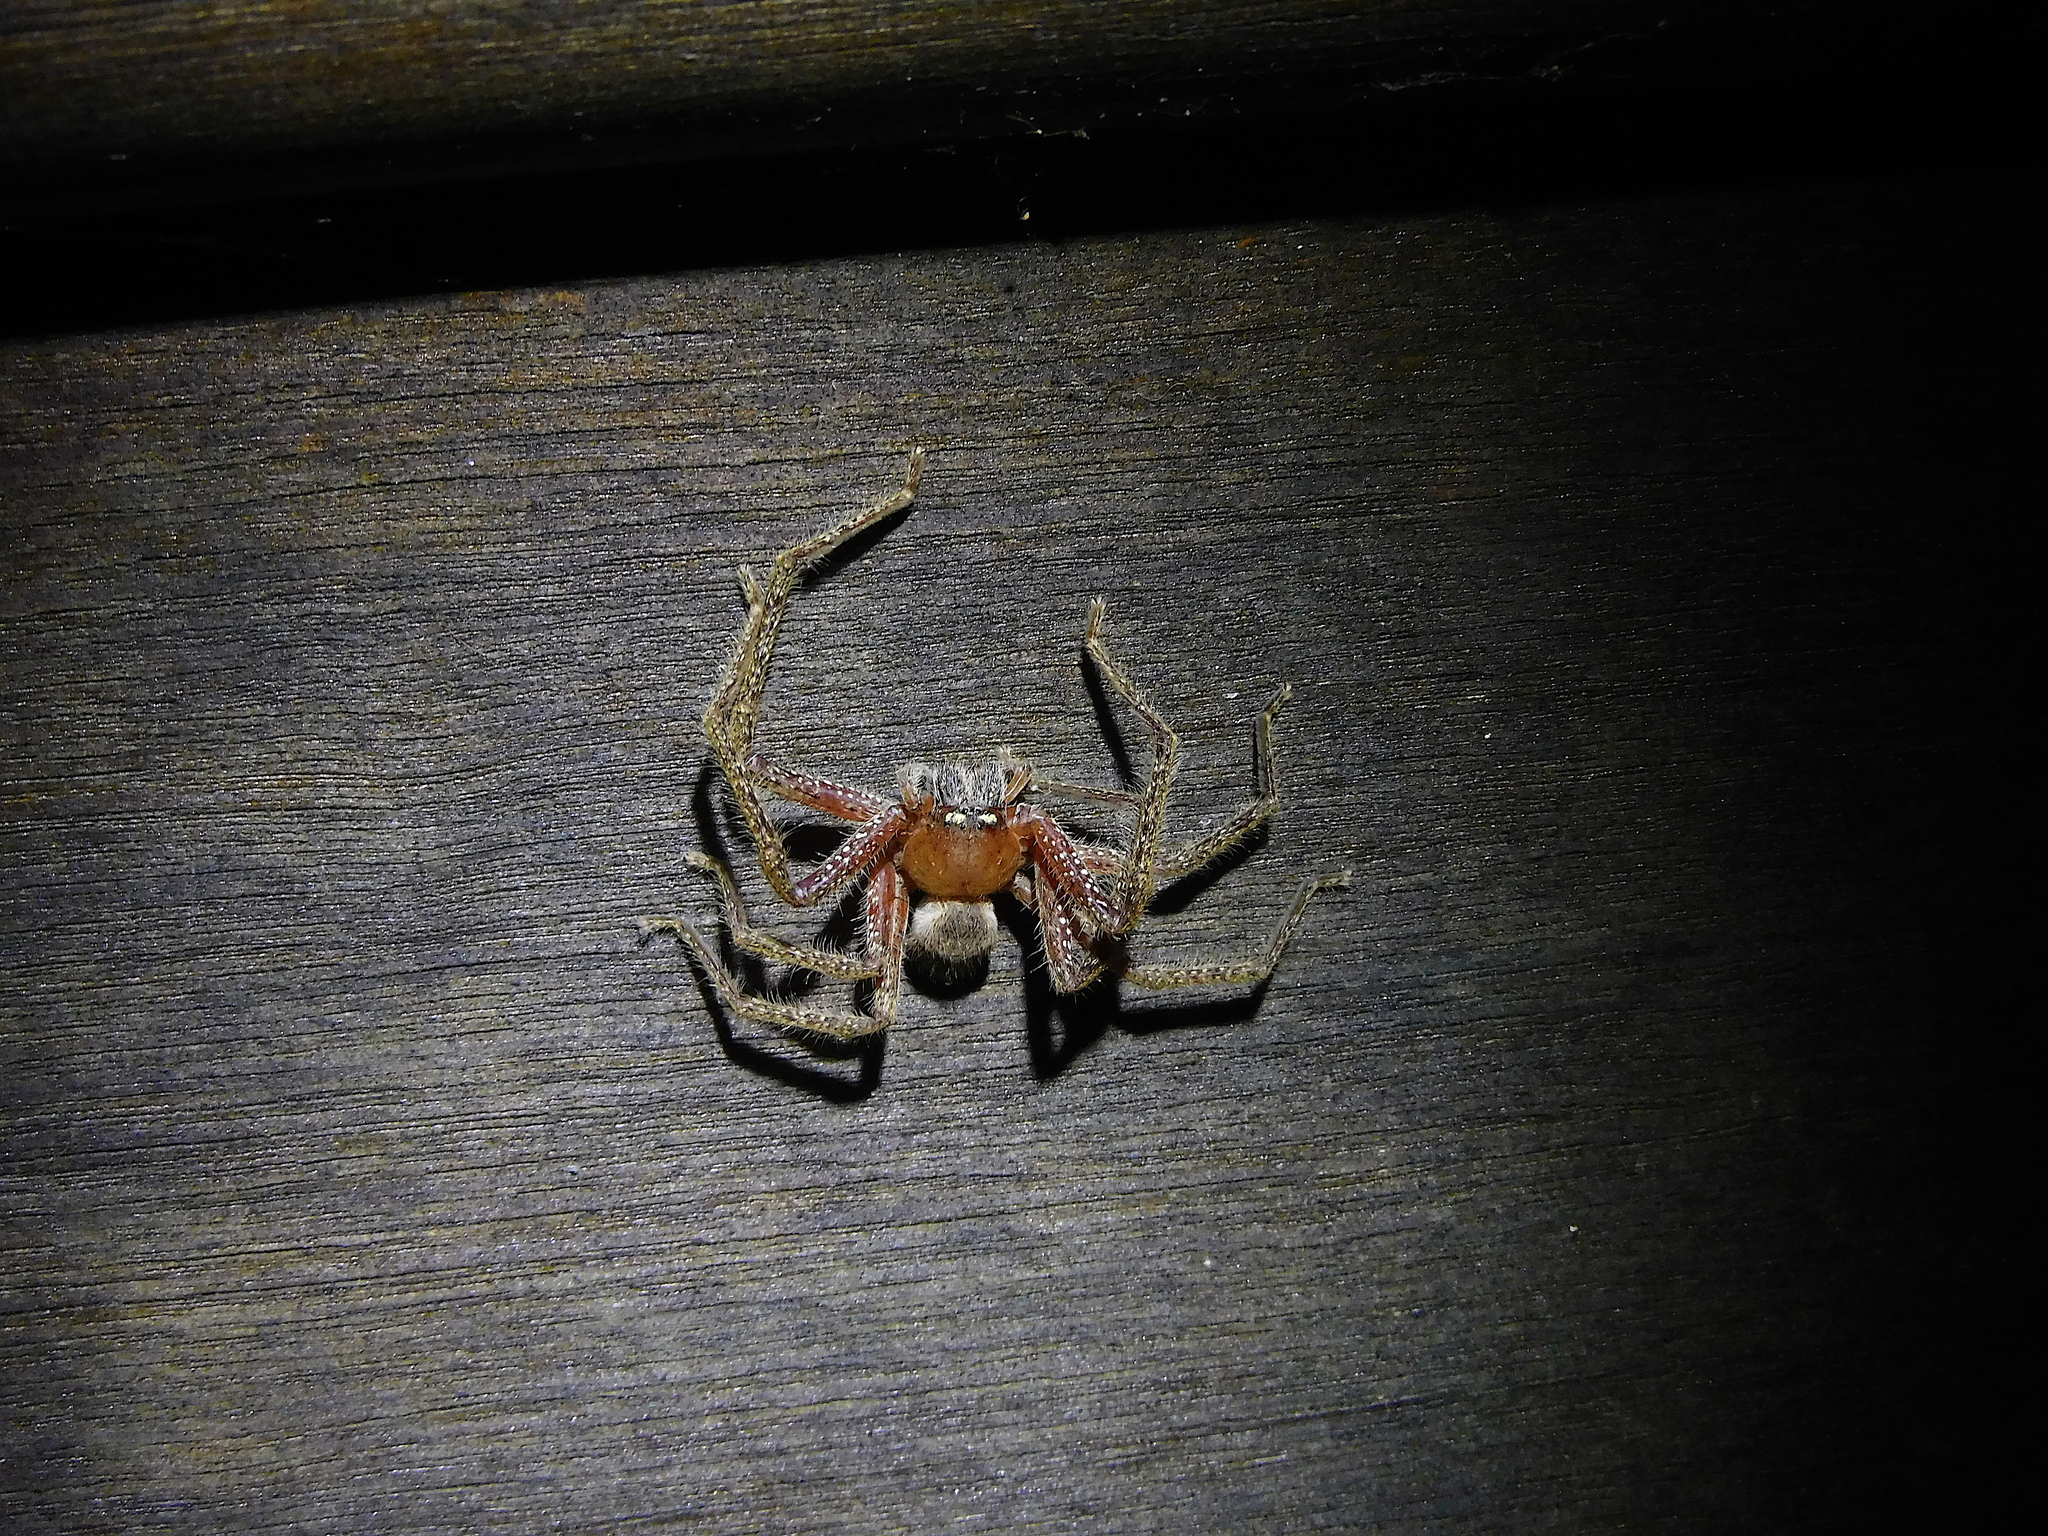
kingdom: Animalia
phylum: Arthropoda
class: Arachnida
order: Araneae
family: Sparassidae
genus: Neosparassus
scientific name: Neosparassus diana
